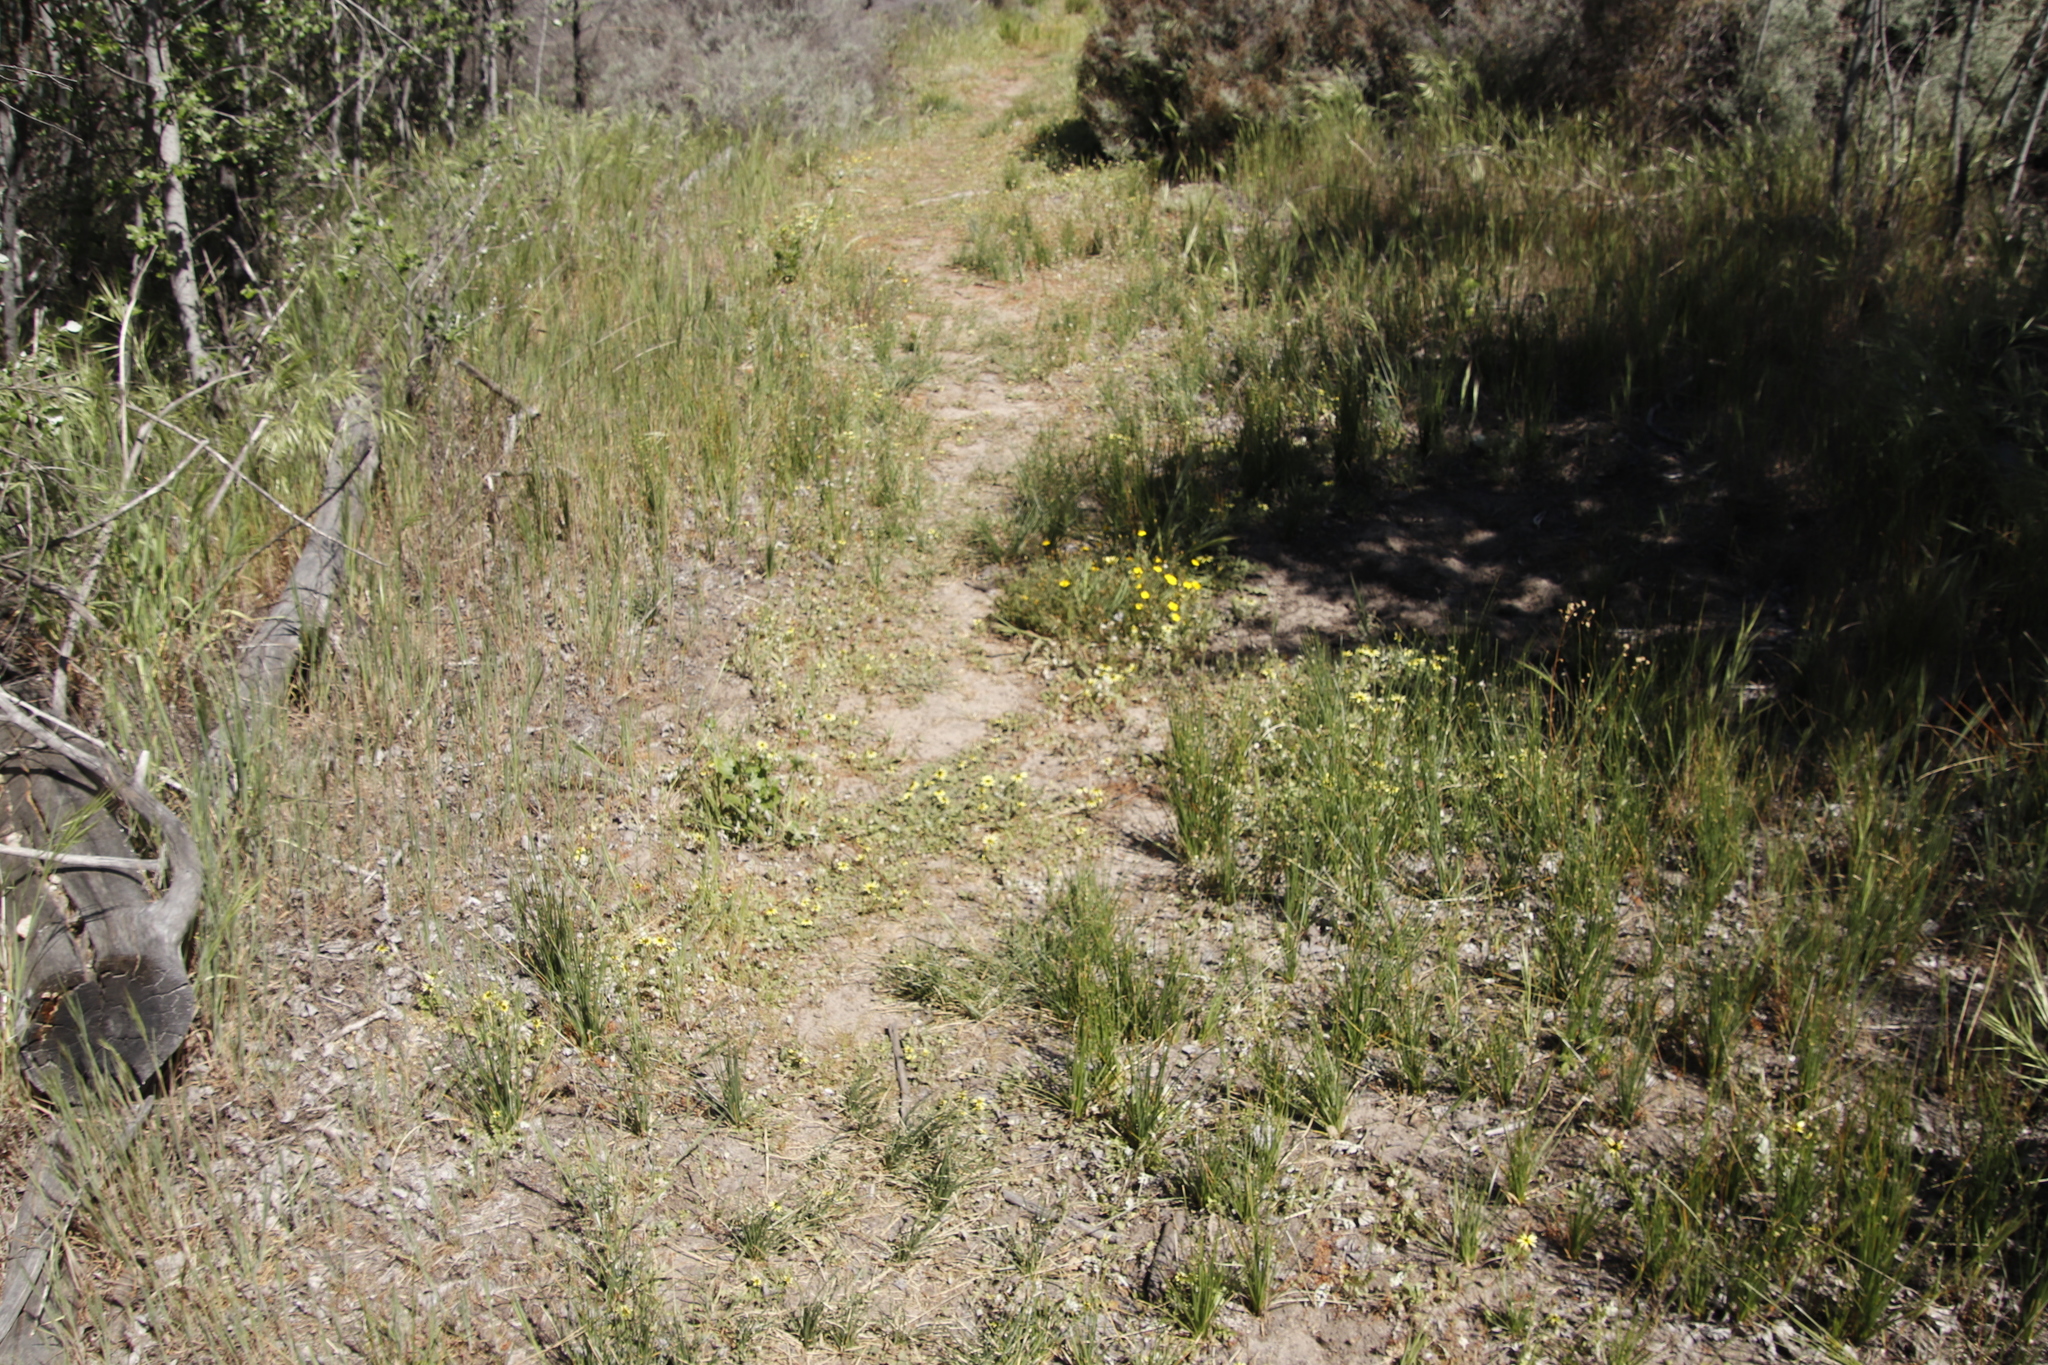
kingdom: Plantae
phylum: Tracheophyta
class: Magnoliopsida
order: Asterales
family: Asteraceae
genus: Arctotheca
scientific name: Arctotheca calendula
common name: Capeweed
